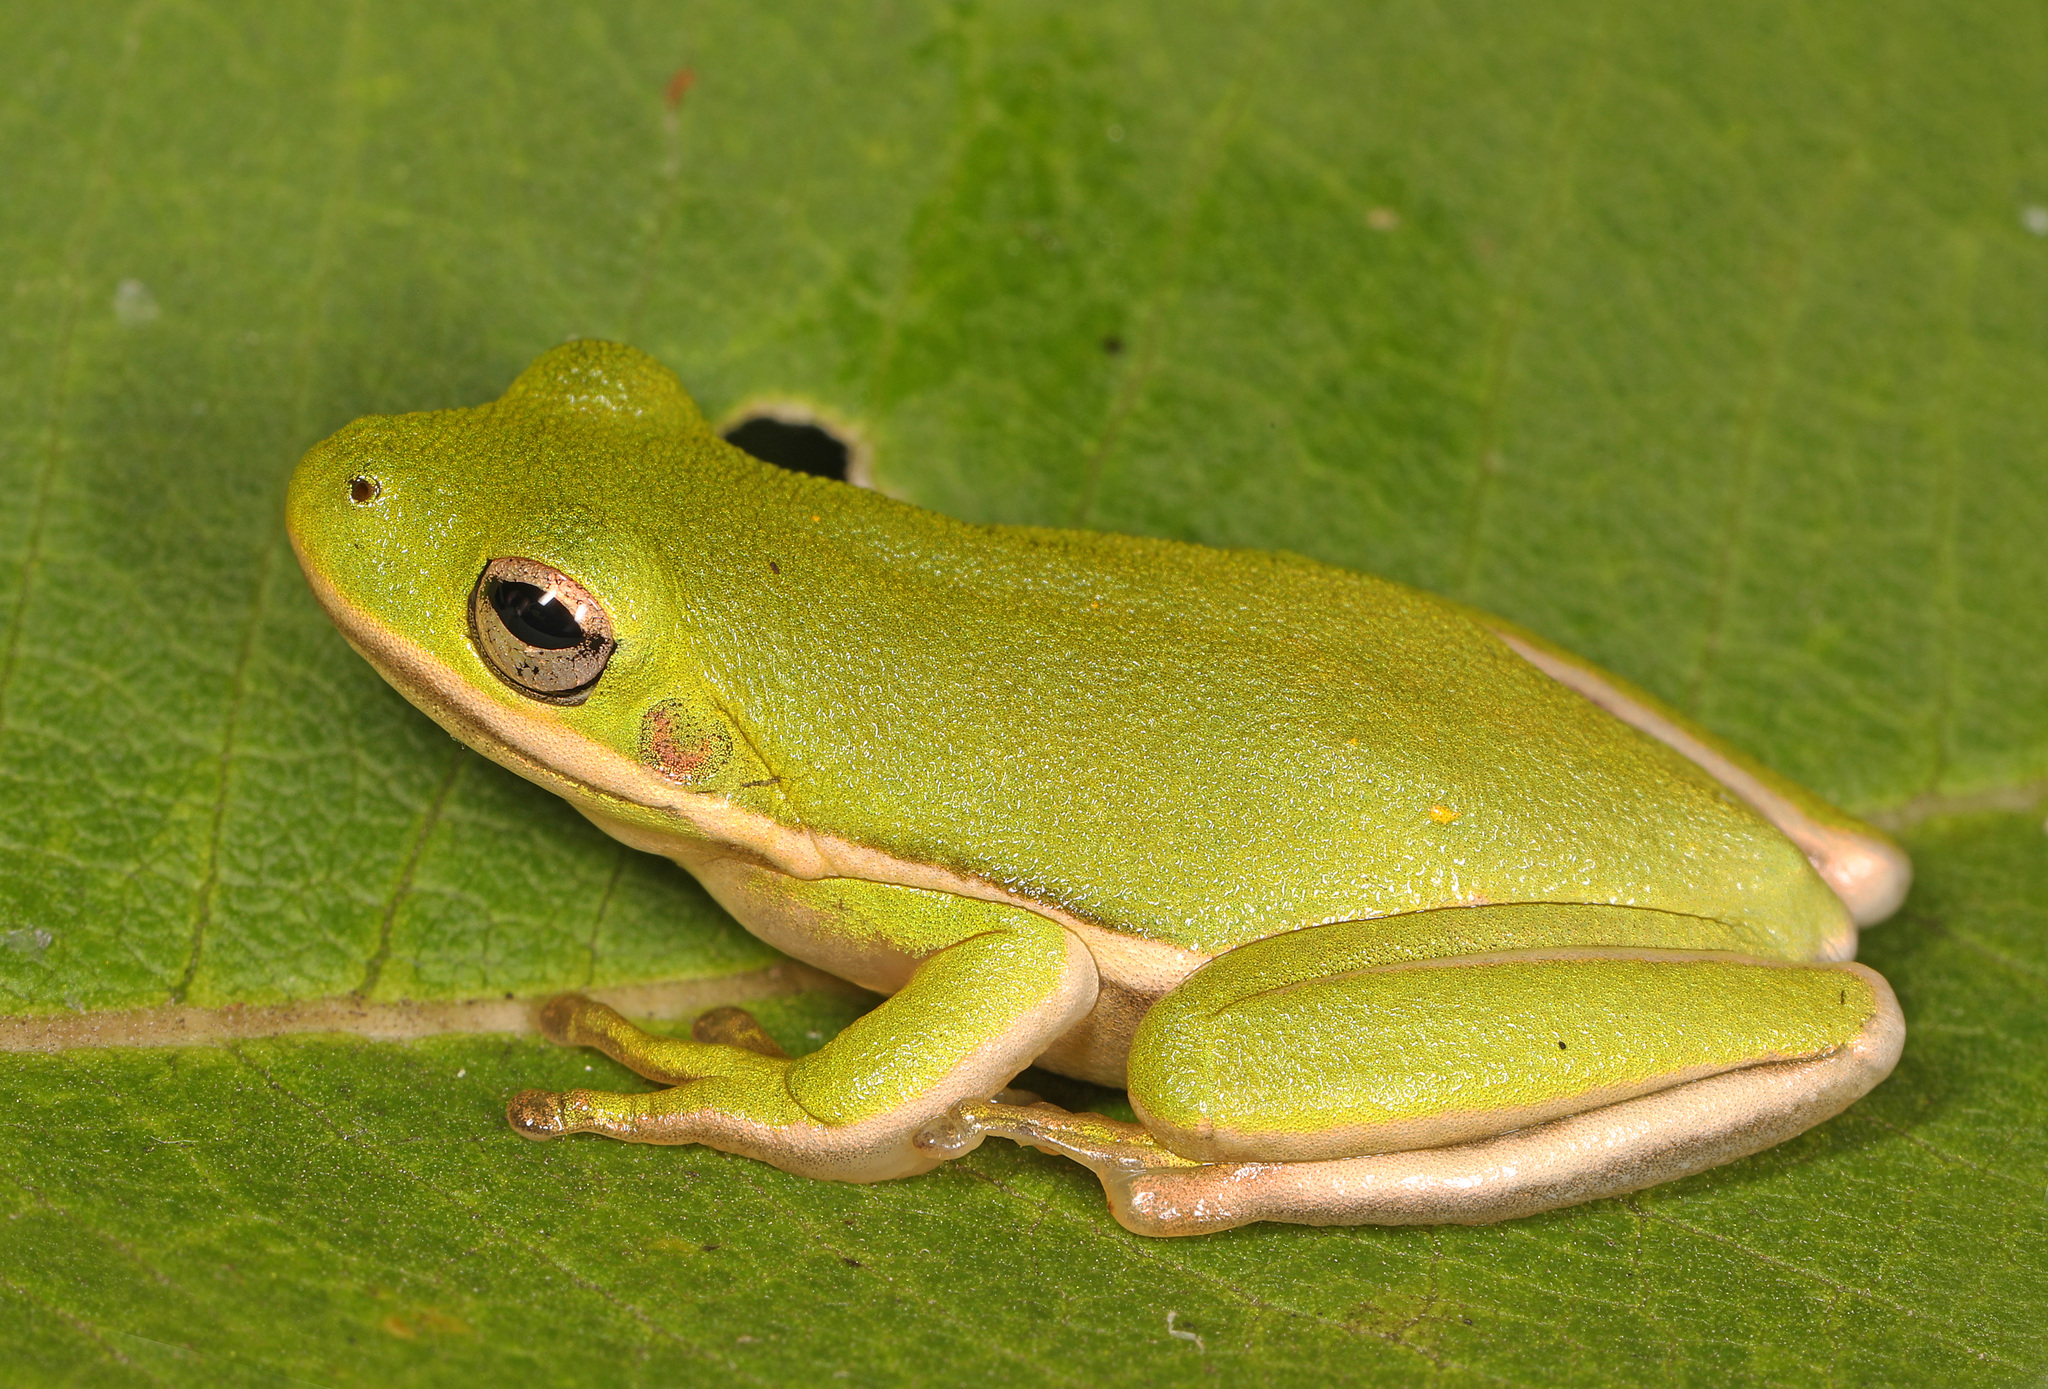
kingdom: Animalia
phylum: Chordata
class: Amphibia
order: Anura
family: Hylidae
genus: Dryophytes
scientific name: Dryophytes cinereus
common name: Green treefrog
